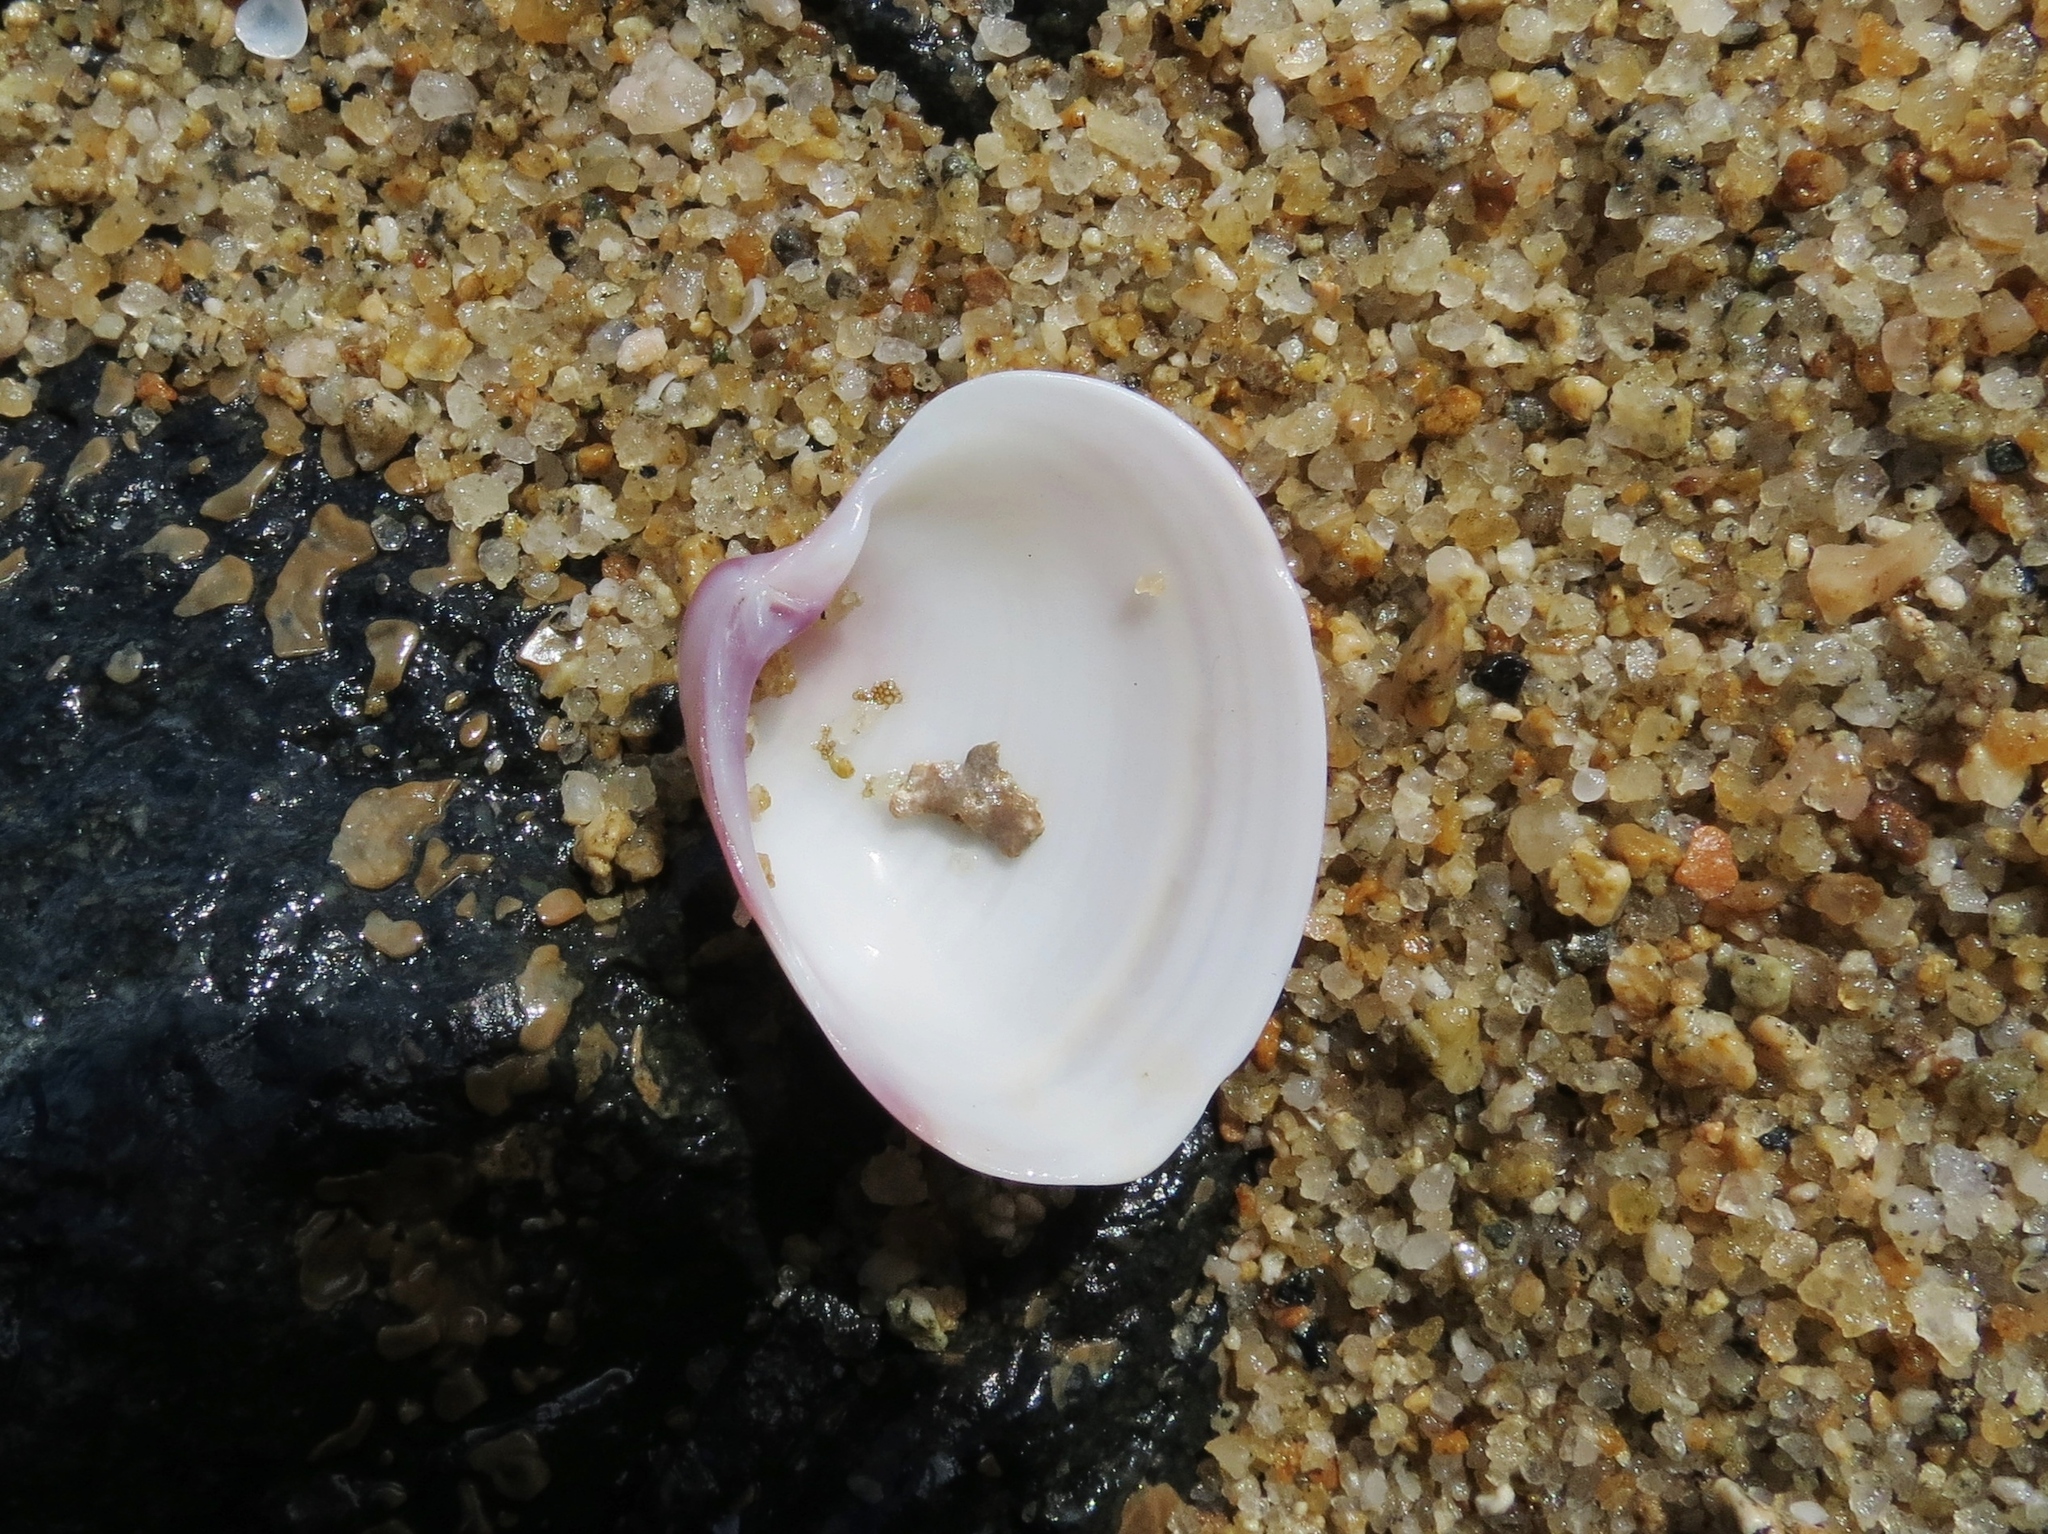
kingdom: Animalia
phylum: Mollusca
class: Bivalvia
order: Venerida
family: Veneridae
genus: Hysteroconcha
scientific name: Hysteroconcha dione
